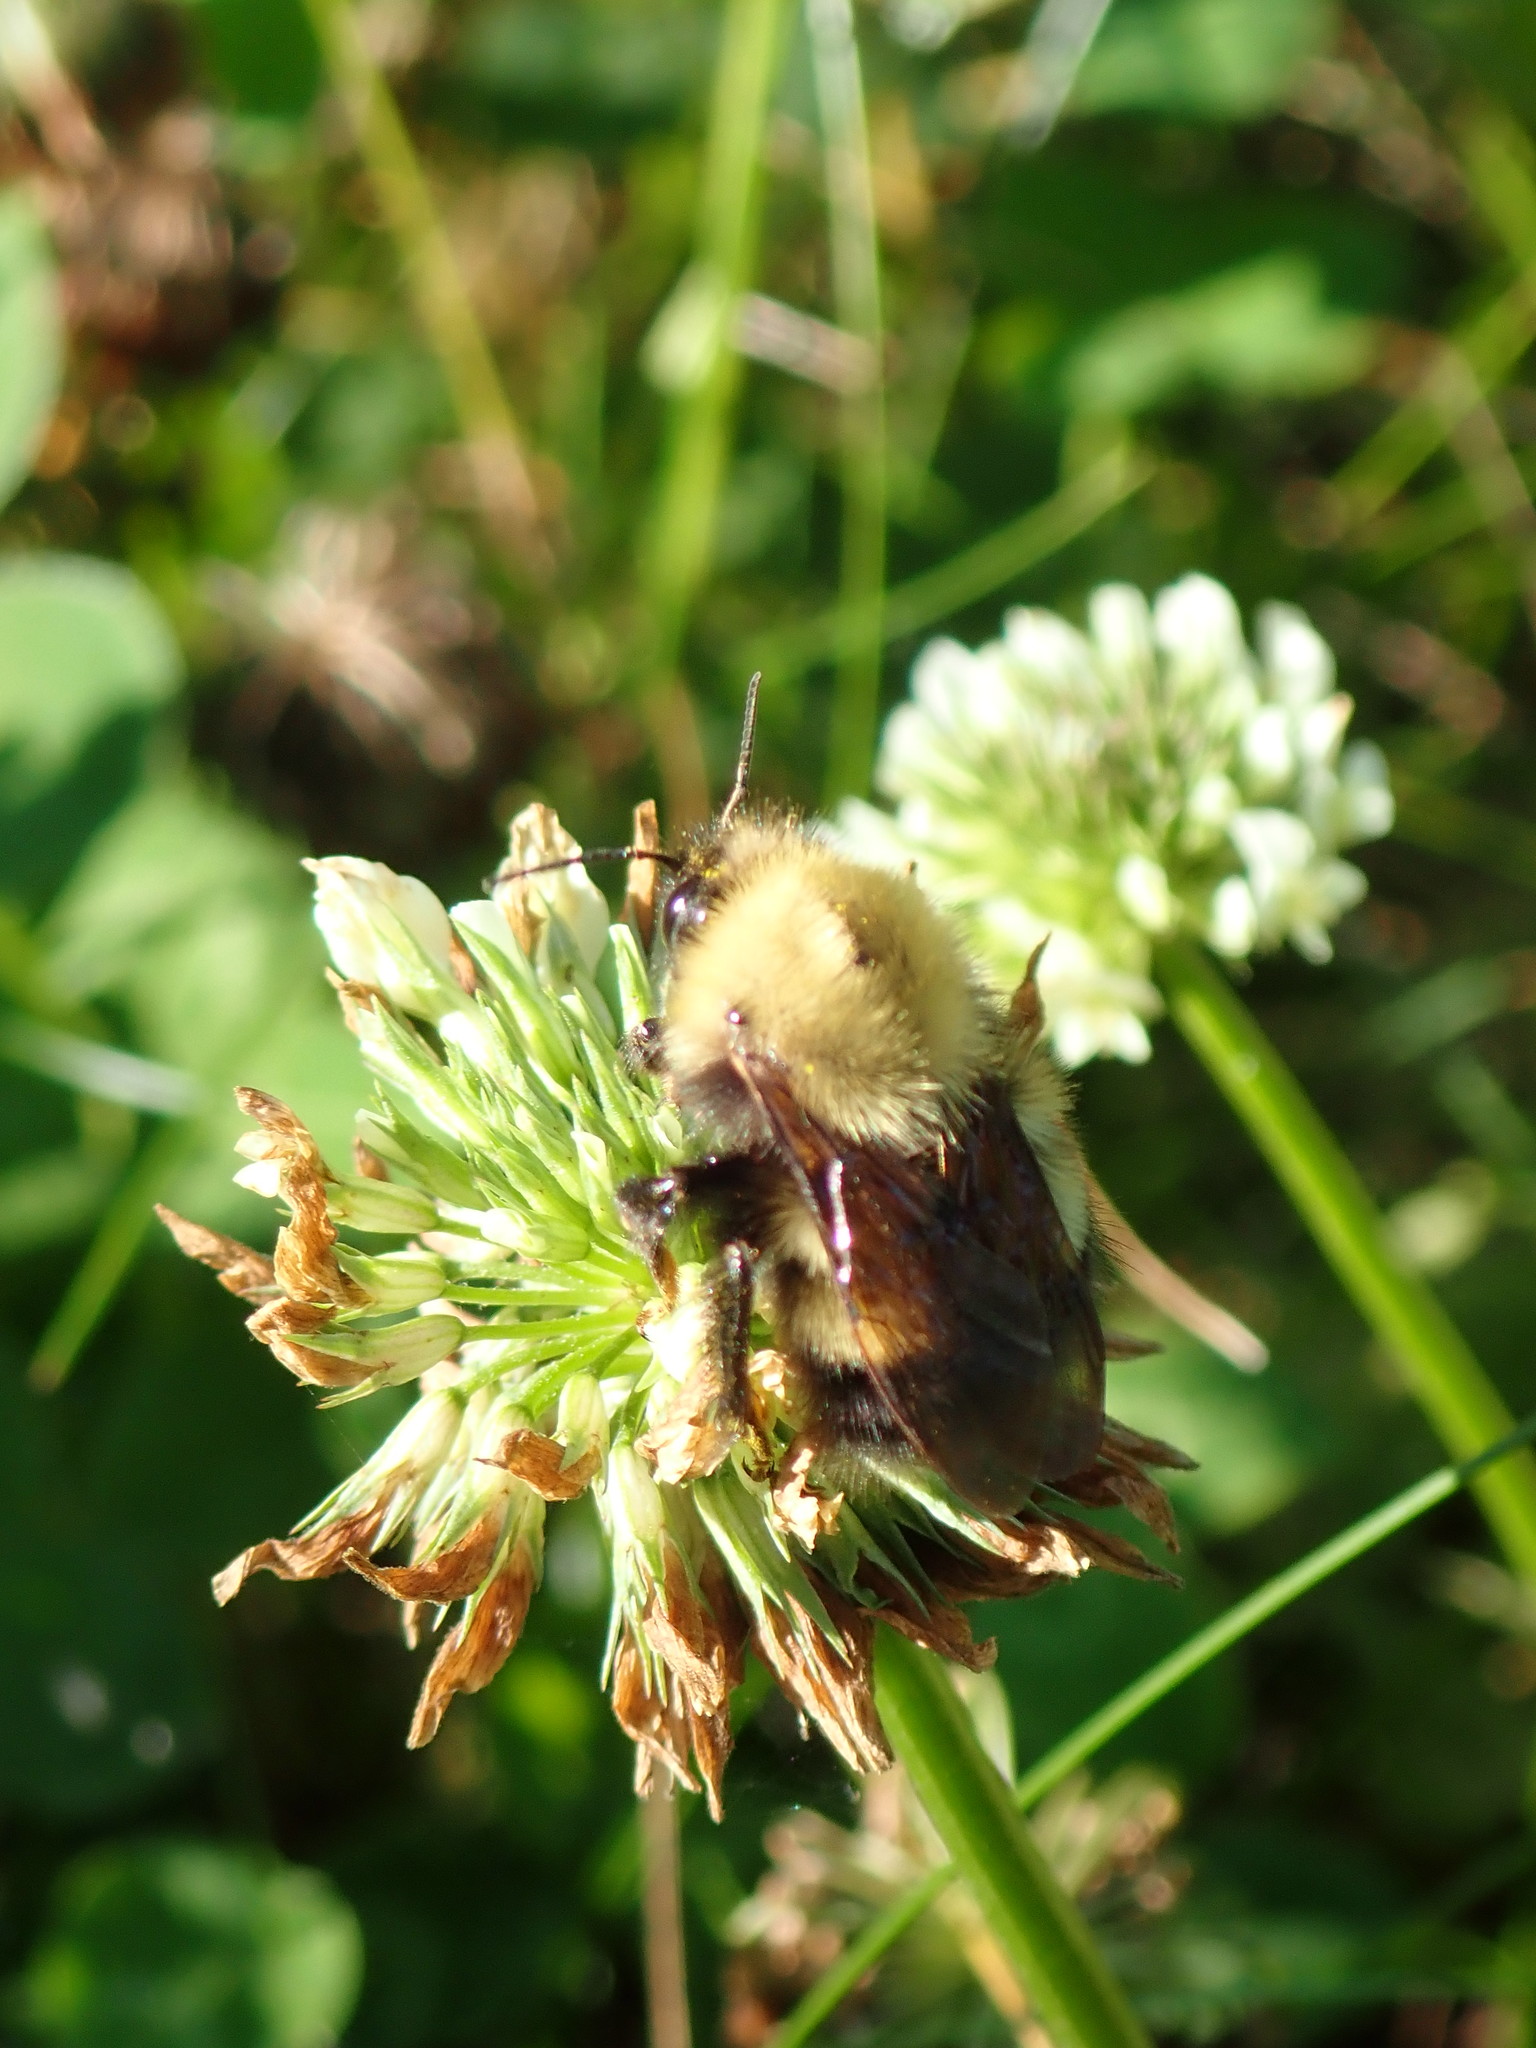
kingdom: Animalia
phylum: Arthropoda
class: Insecta
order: Hymenoptera
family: Apidae
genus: Bombus
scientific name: Bombus perplexus
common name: Confusing bumble bee
